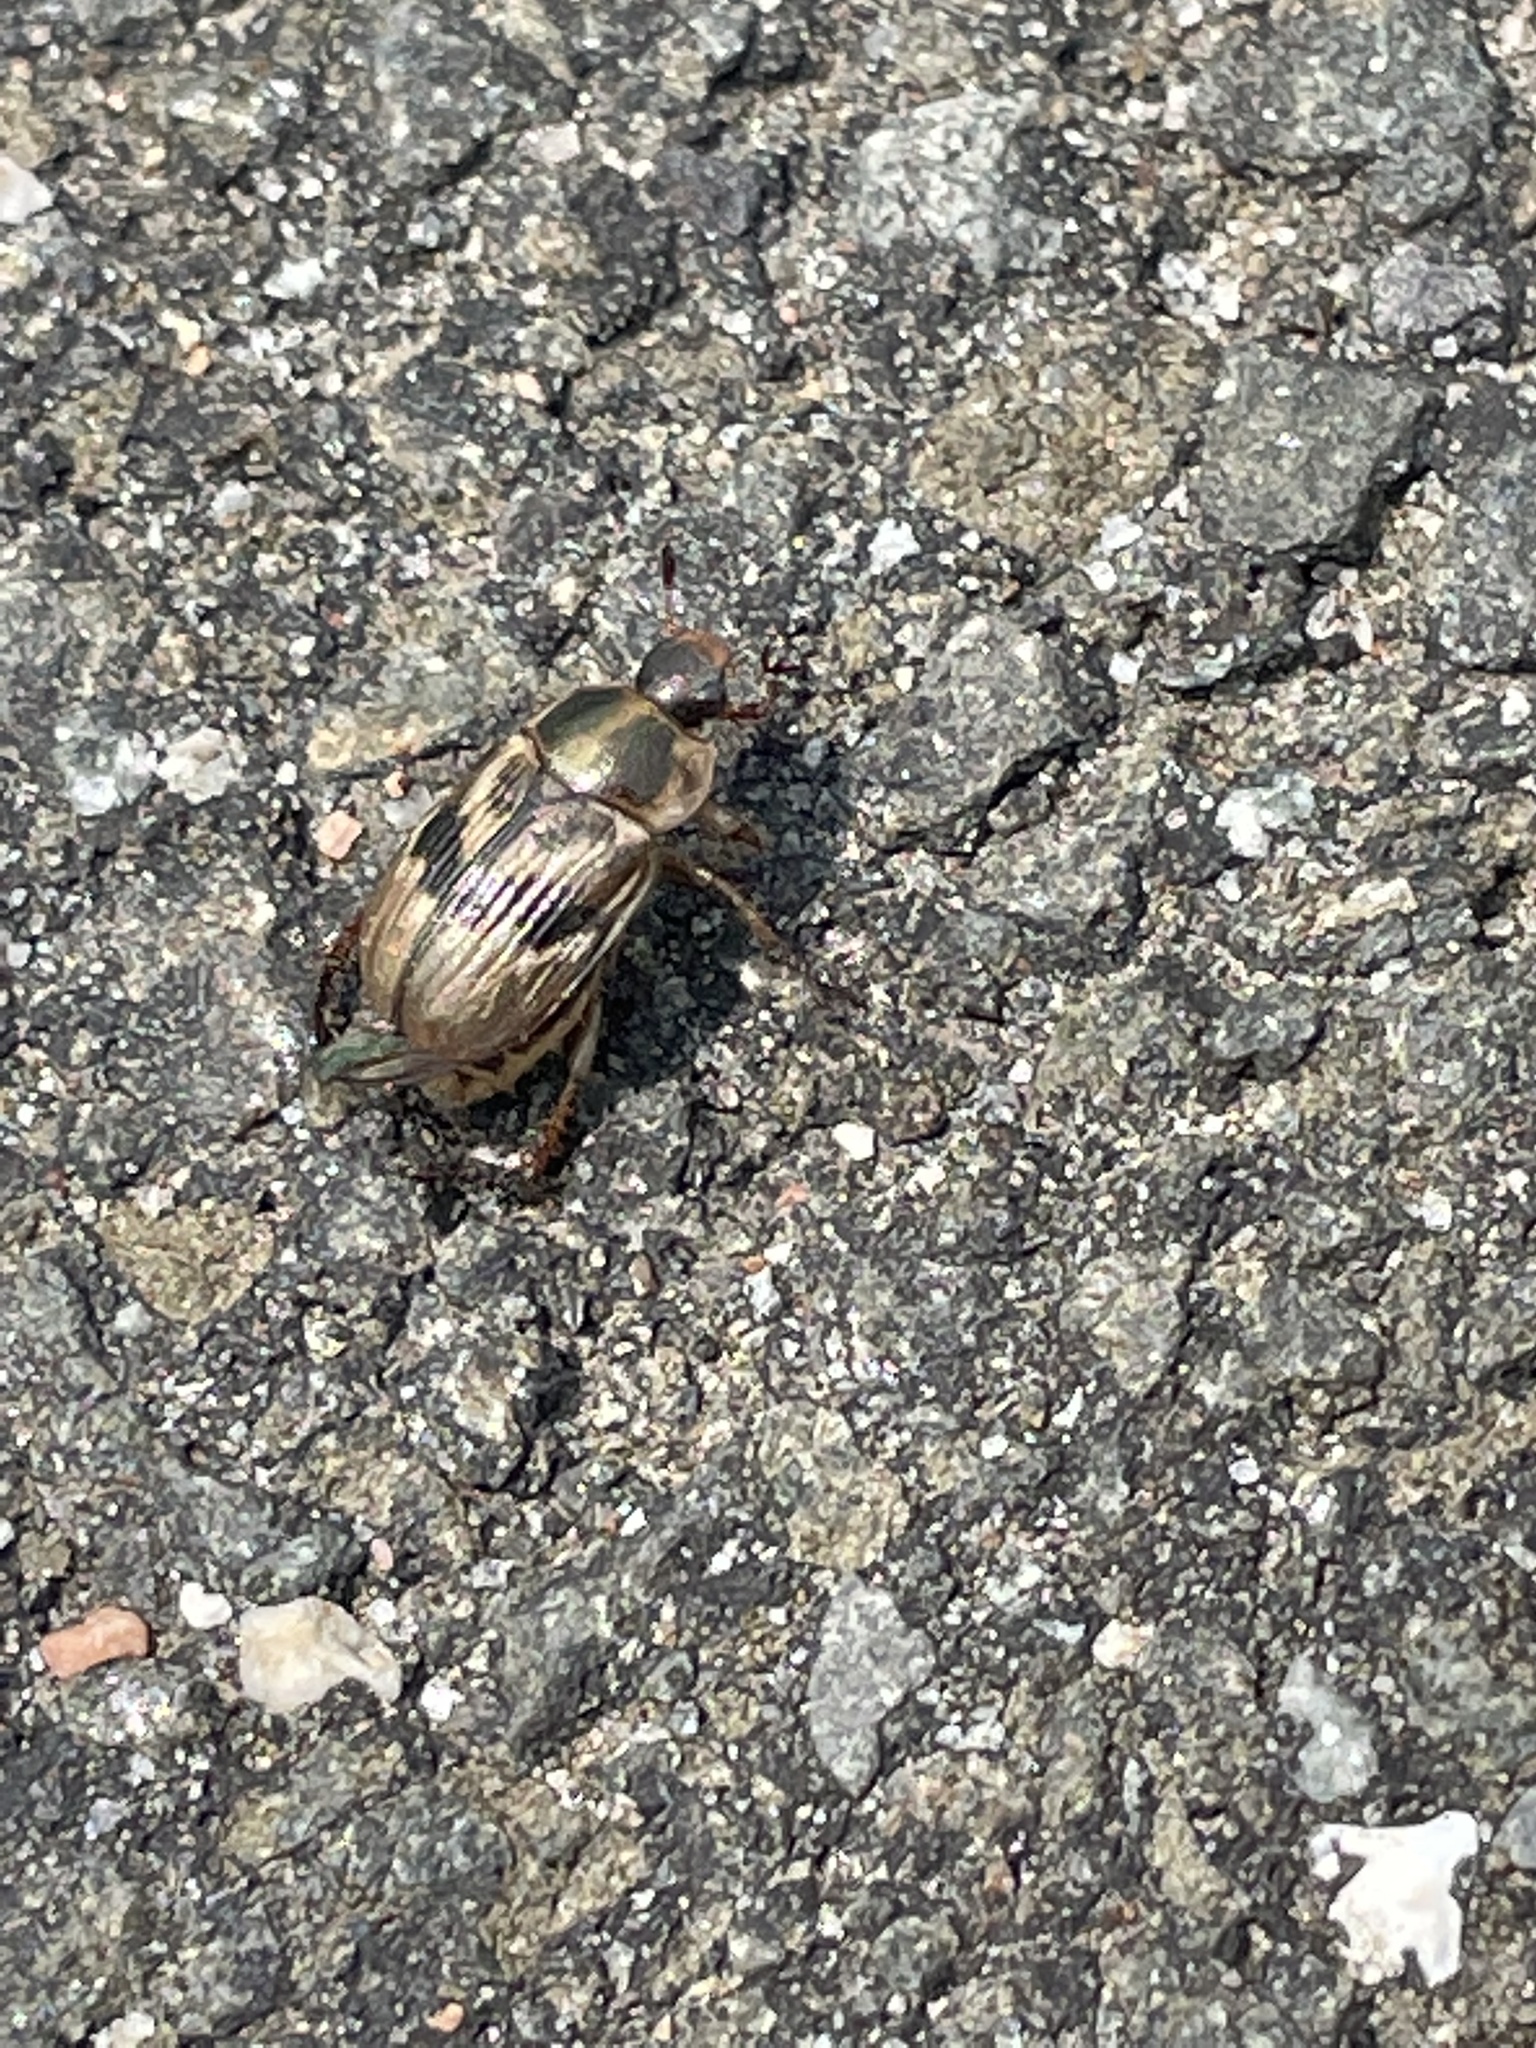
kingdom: Animalia
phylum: Arthropoda
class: Insecta
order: Coleoptera
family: Scarabaeidae
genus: Exomala
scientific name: Exomala orientalis
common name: Oriental beetle
